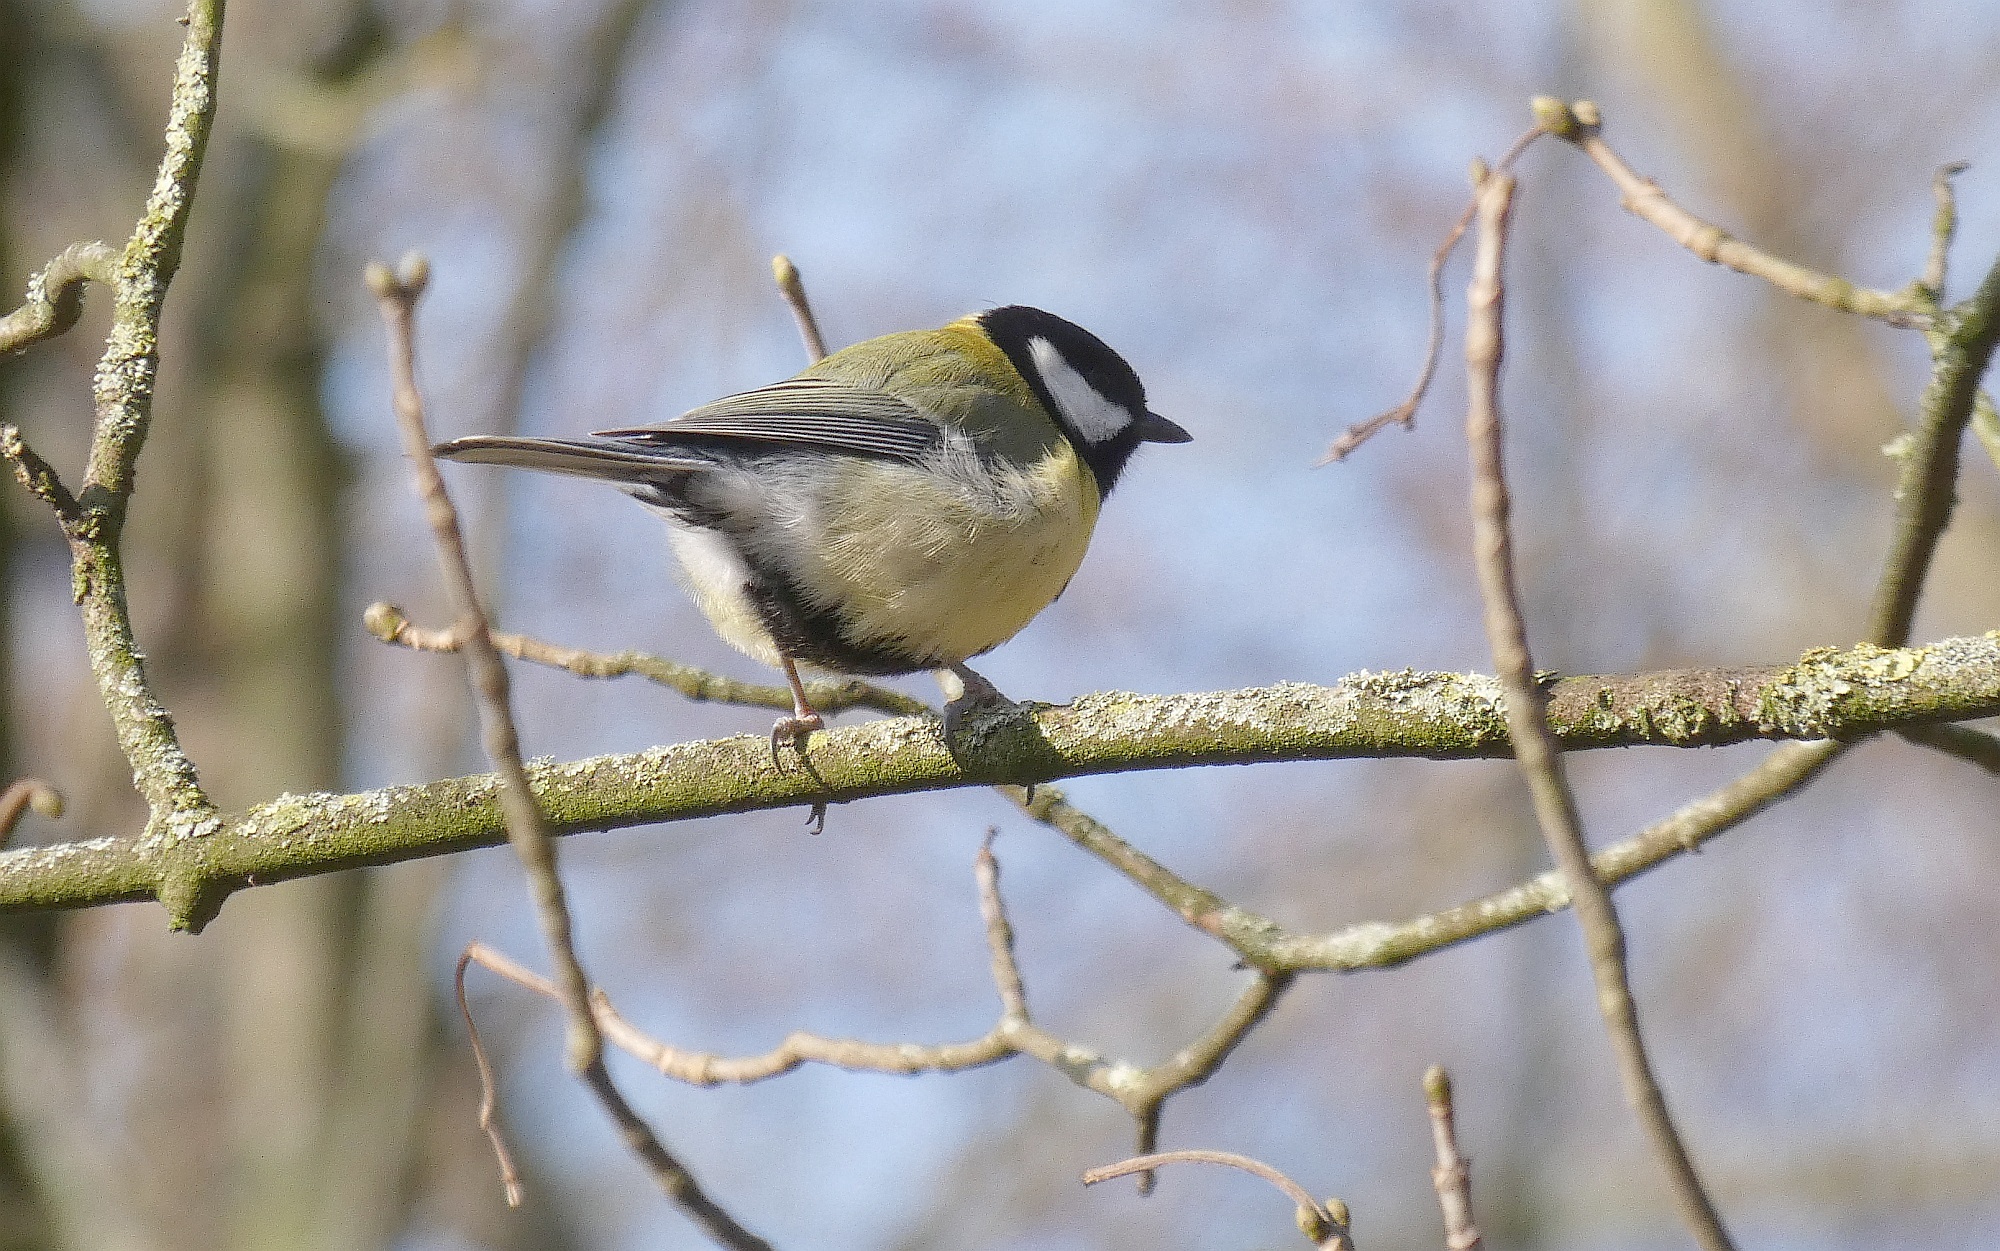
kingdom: Animalia
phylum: Chordata
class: Aves
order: Passeriformes
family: Paridae
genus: Parus
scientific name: Parus major
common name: Great tit
